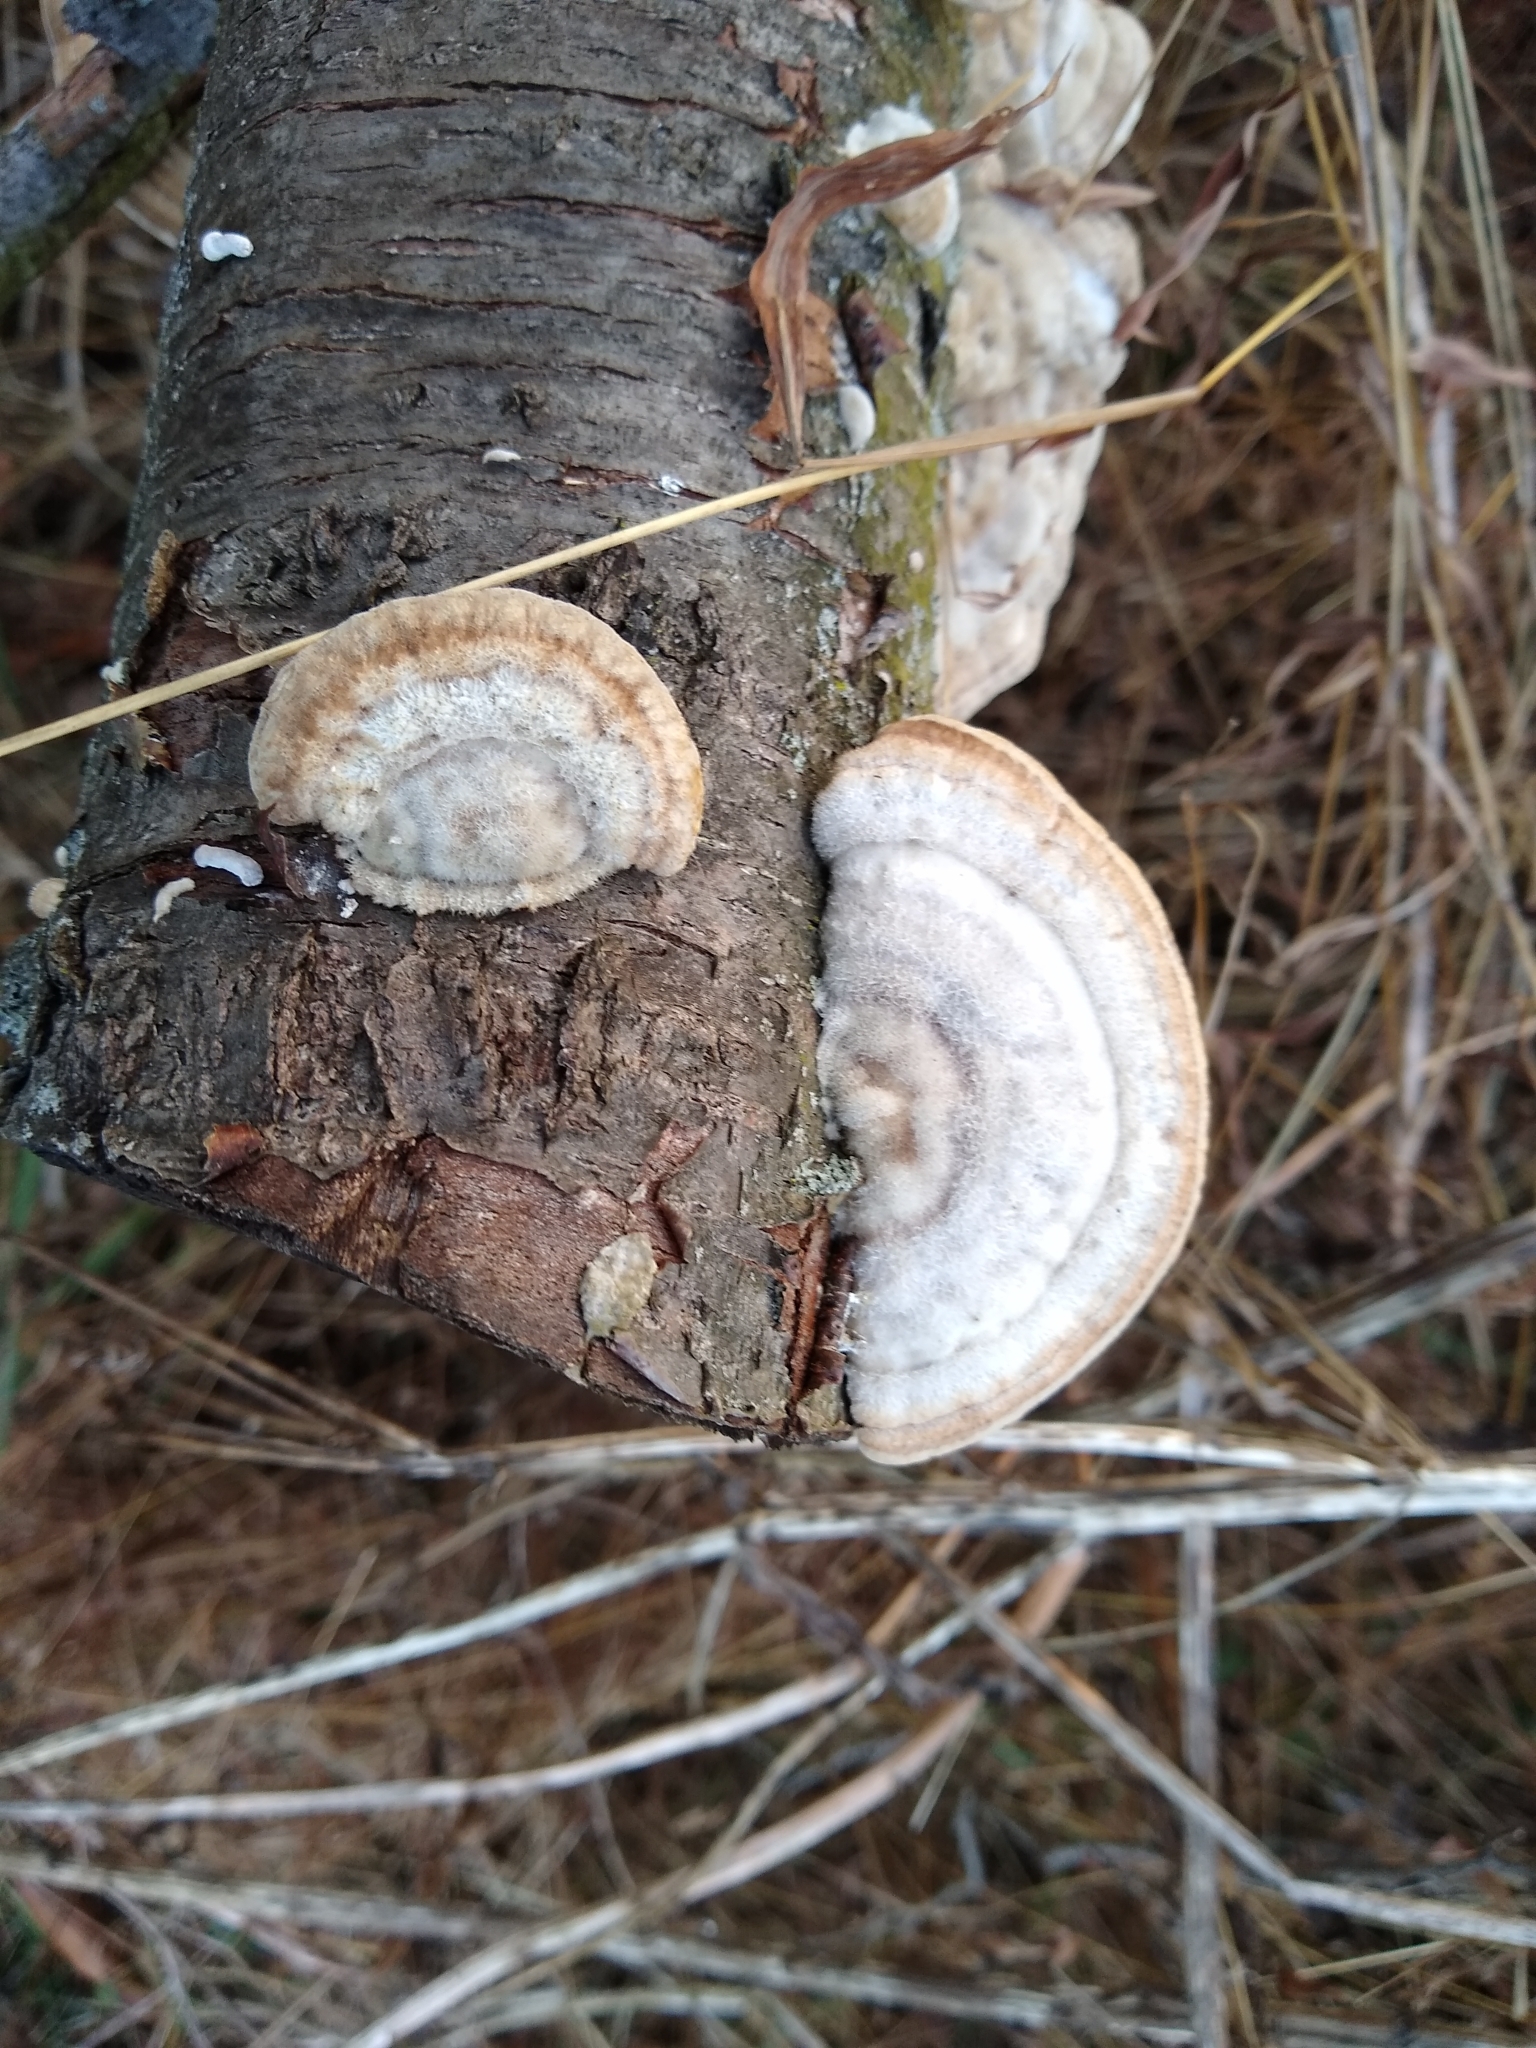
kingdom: Fungi
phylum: Basidiomycota
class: Agaricomycetes
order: Polyporales
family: Polyporaceae
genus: Trametes
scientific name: Trametes hirsuta
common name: Hairy bracket
